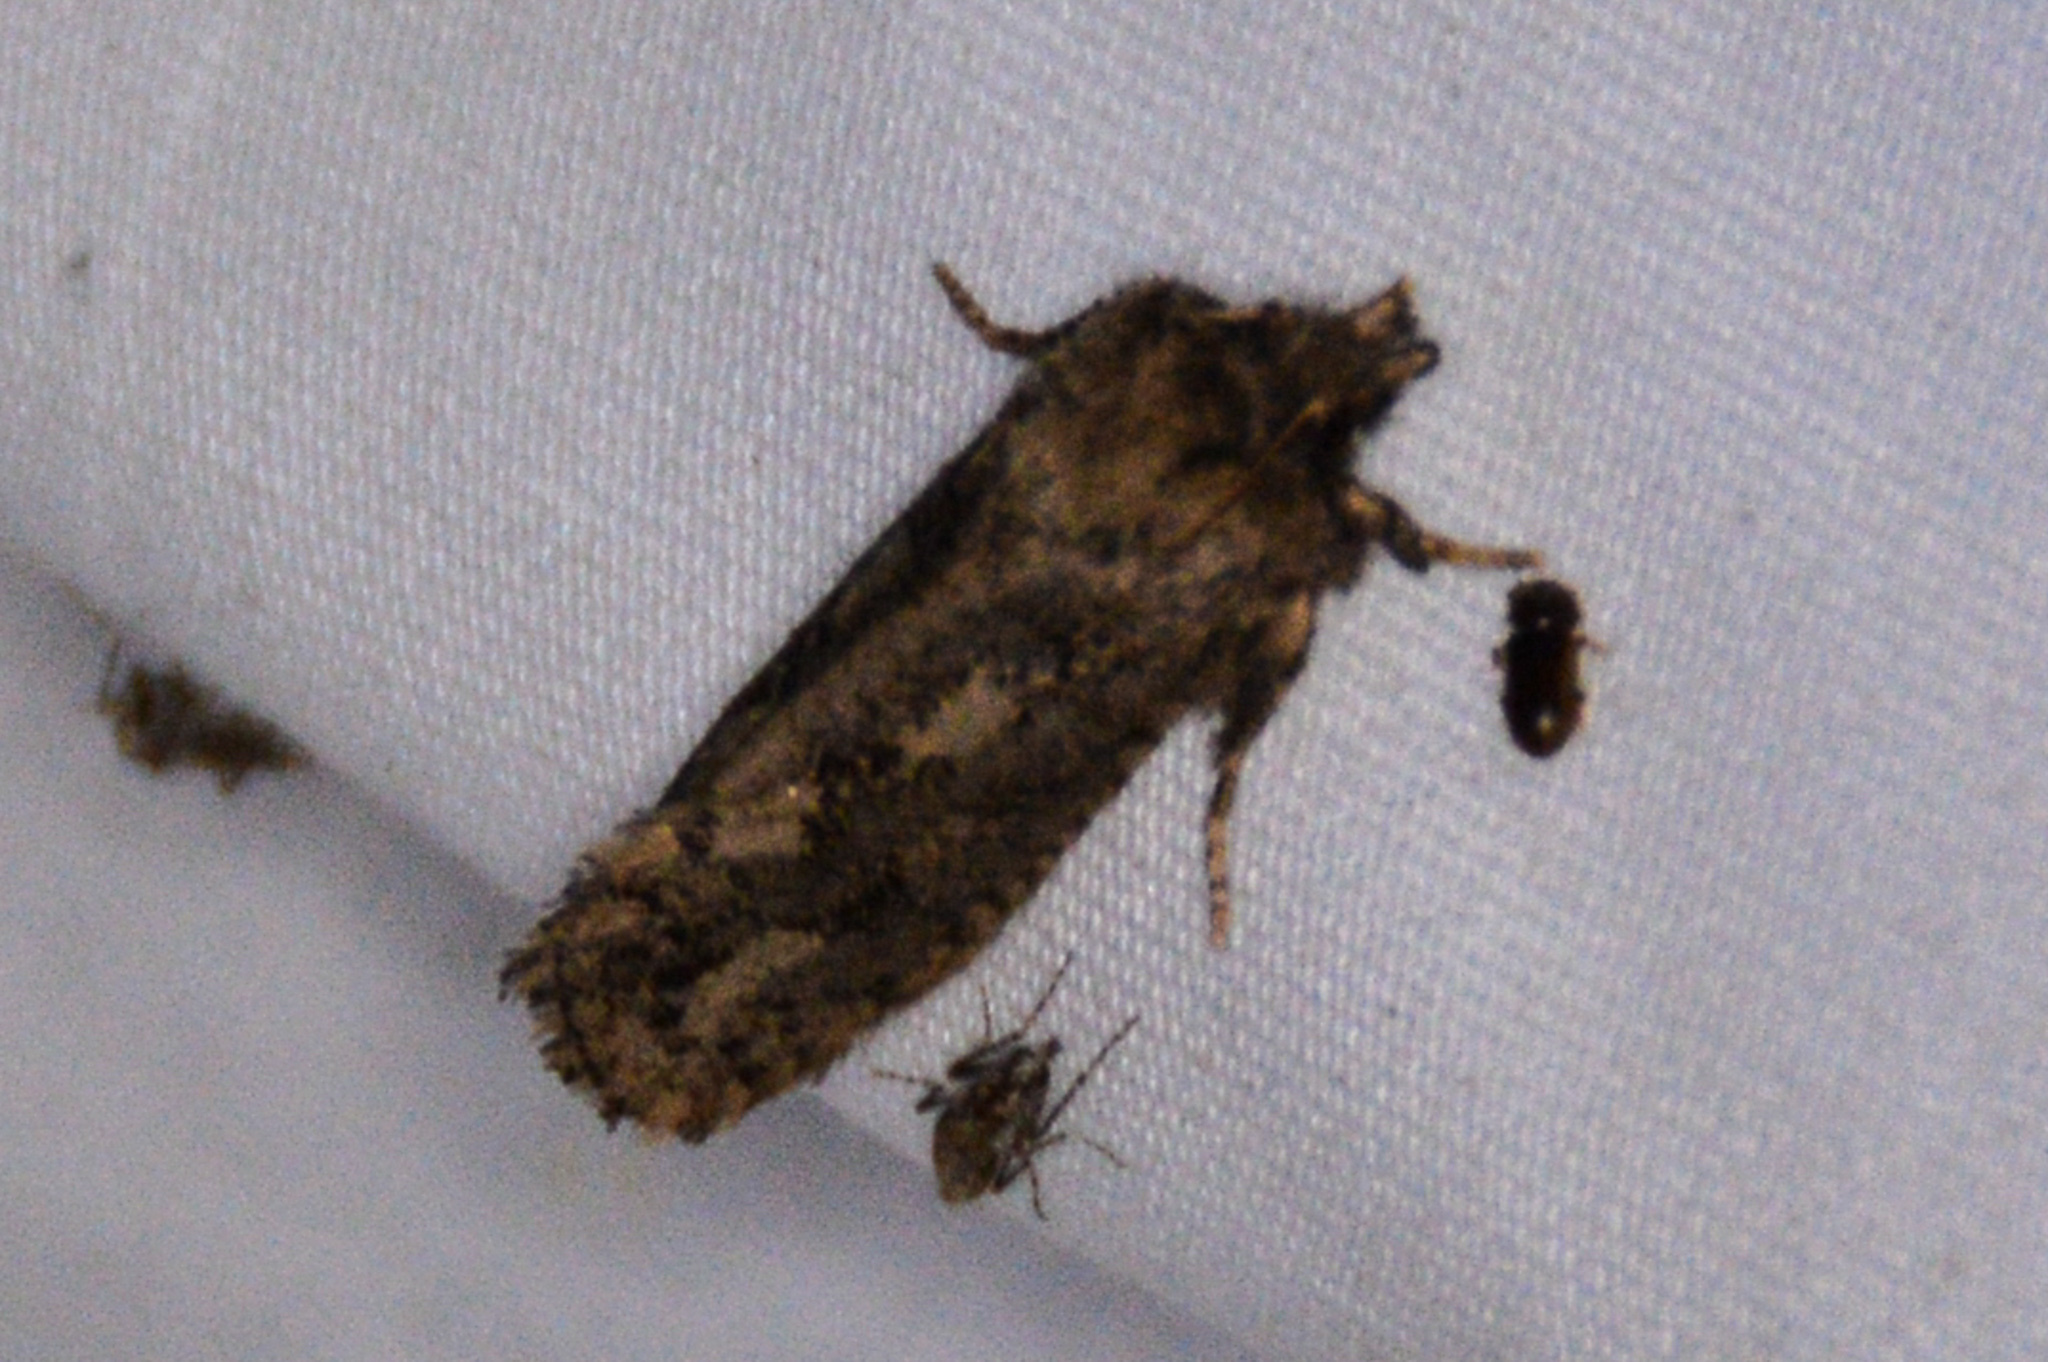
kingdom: Animalia
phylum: Arthropoda
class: Insecta
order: Lepidoptera
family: Tineidae
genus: Acrolophus
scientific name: Acrolophus arcanella
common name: Arcane grass tubeworm moth
